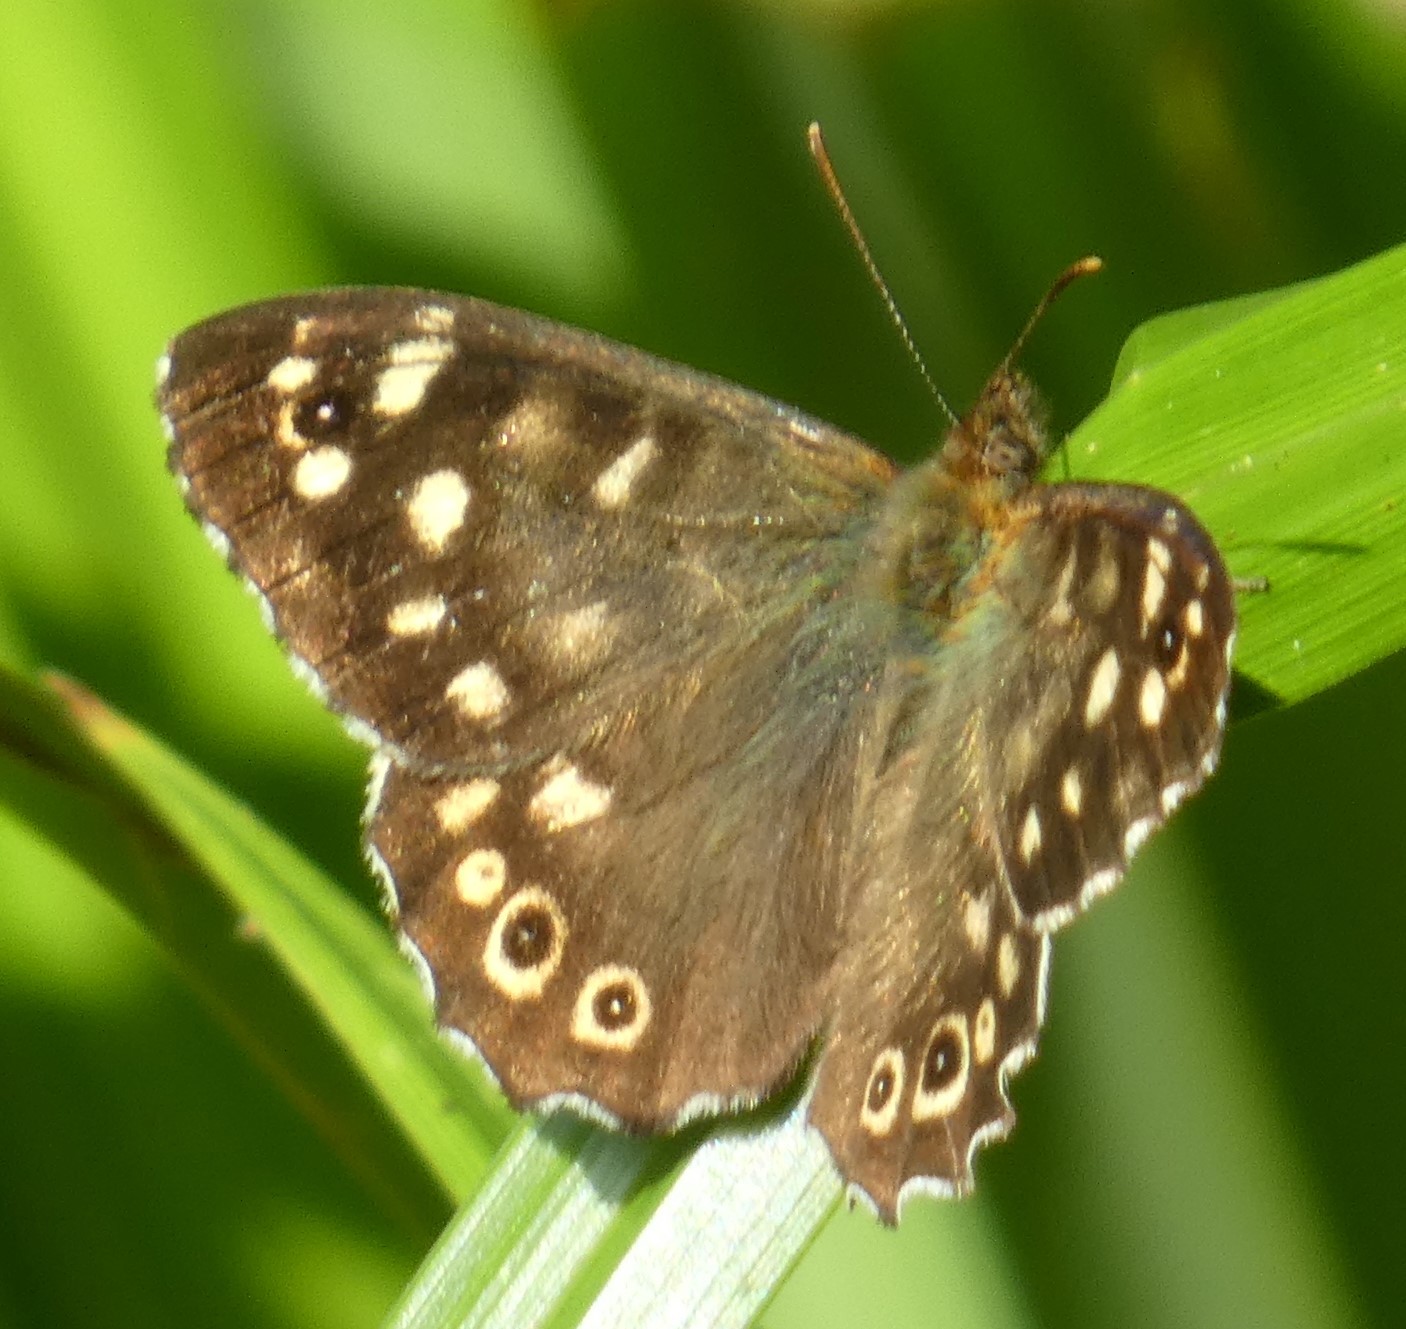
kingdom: Animalia
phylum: Arthropoda
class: Insecta
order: Lepidoptera
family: Nymphalidae
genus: Pararge
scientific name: Pararge aegeria
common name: Speckled wood
